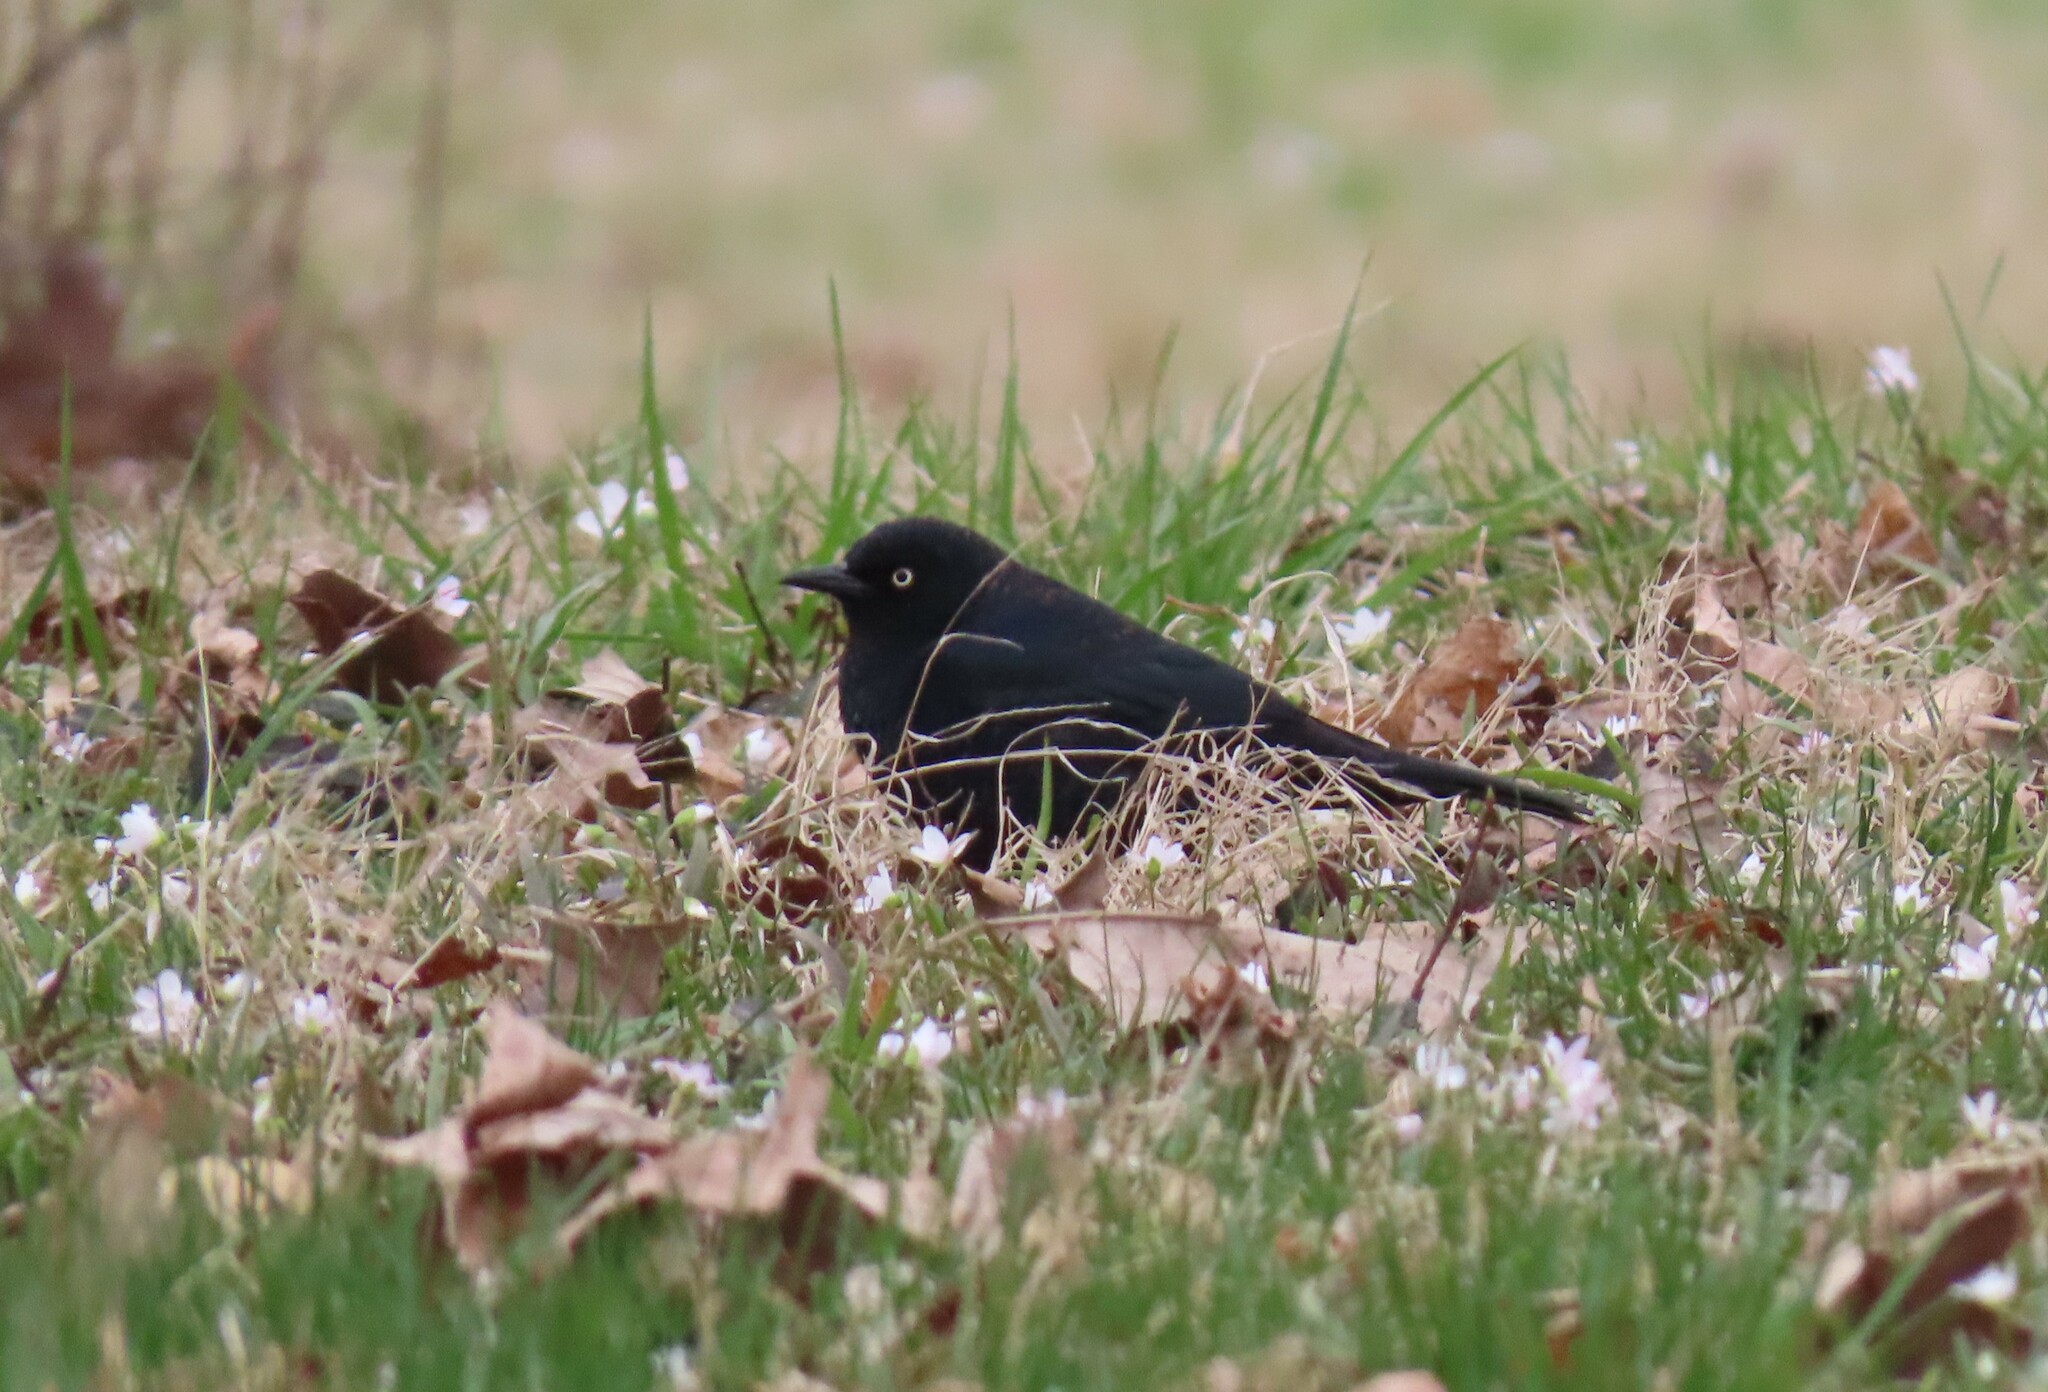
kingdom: Animalia
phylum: Chordata
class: Aves
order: Passeriformes
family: Icteridae
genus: Euphagus
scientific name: Euphagus carolinus
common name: Rusty blackbird
